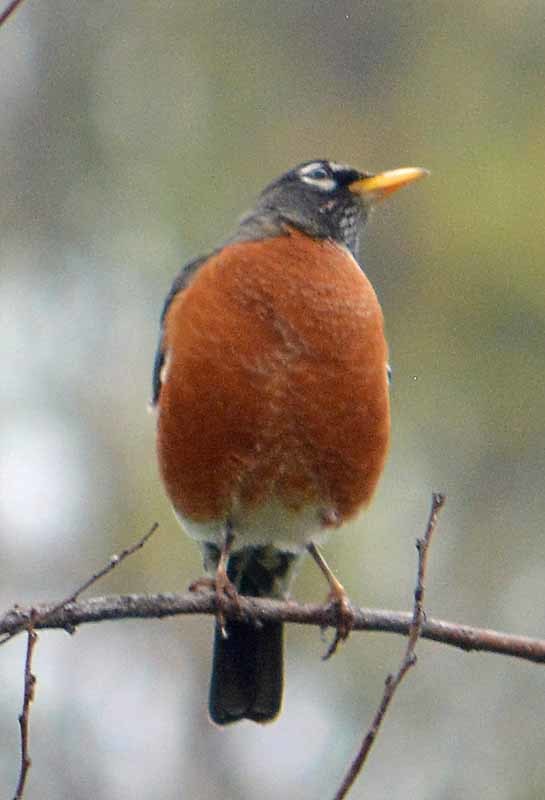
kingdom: Animalia
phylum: Chordata
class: Aves
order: Passeriformes
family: Turdidae
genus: Turdus
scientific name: Turdus migratorius
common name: American robin
